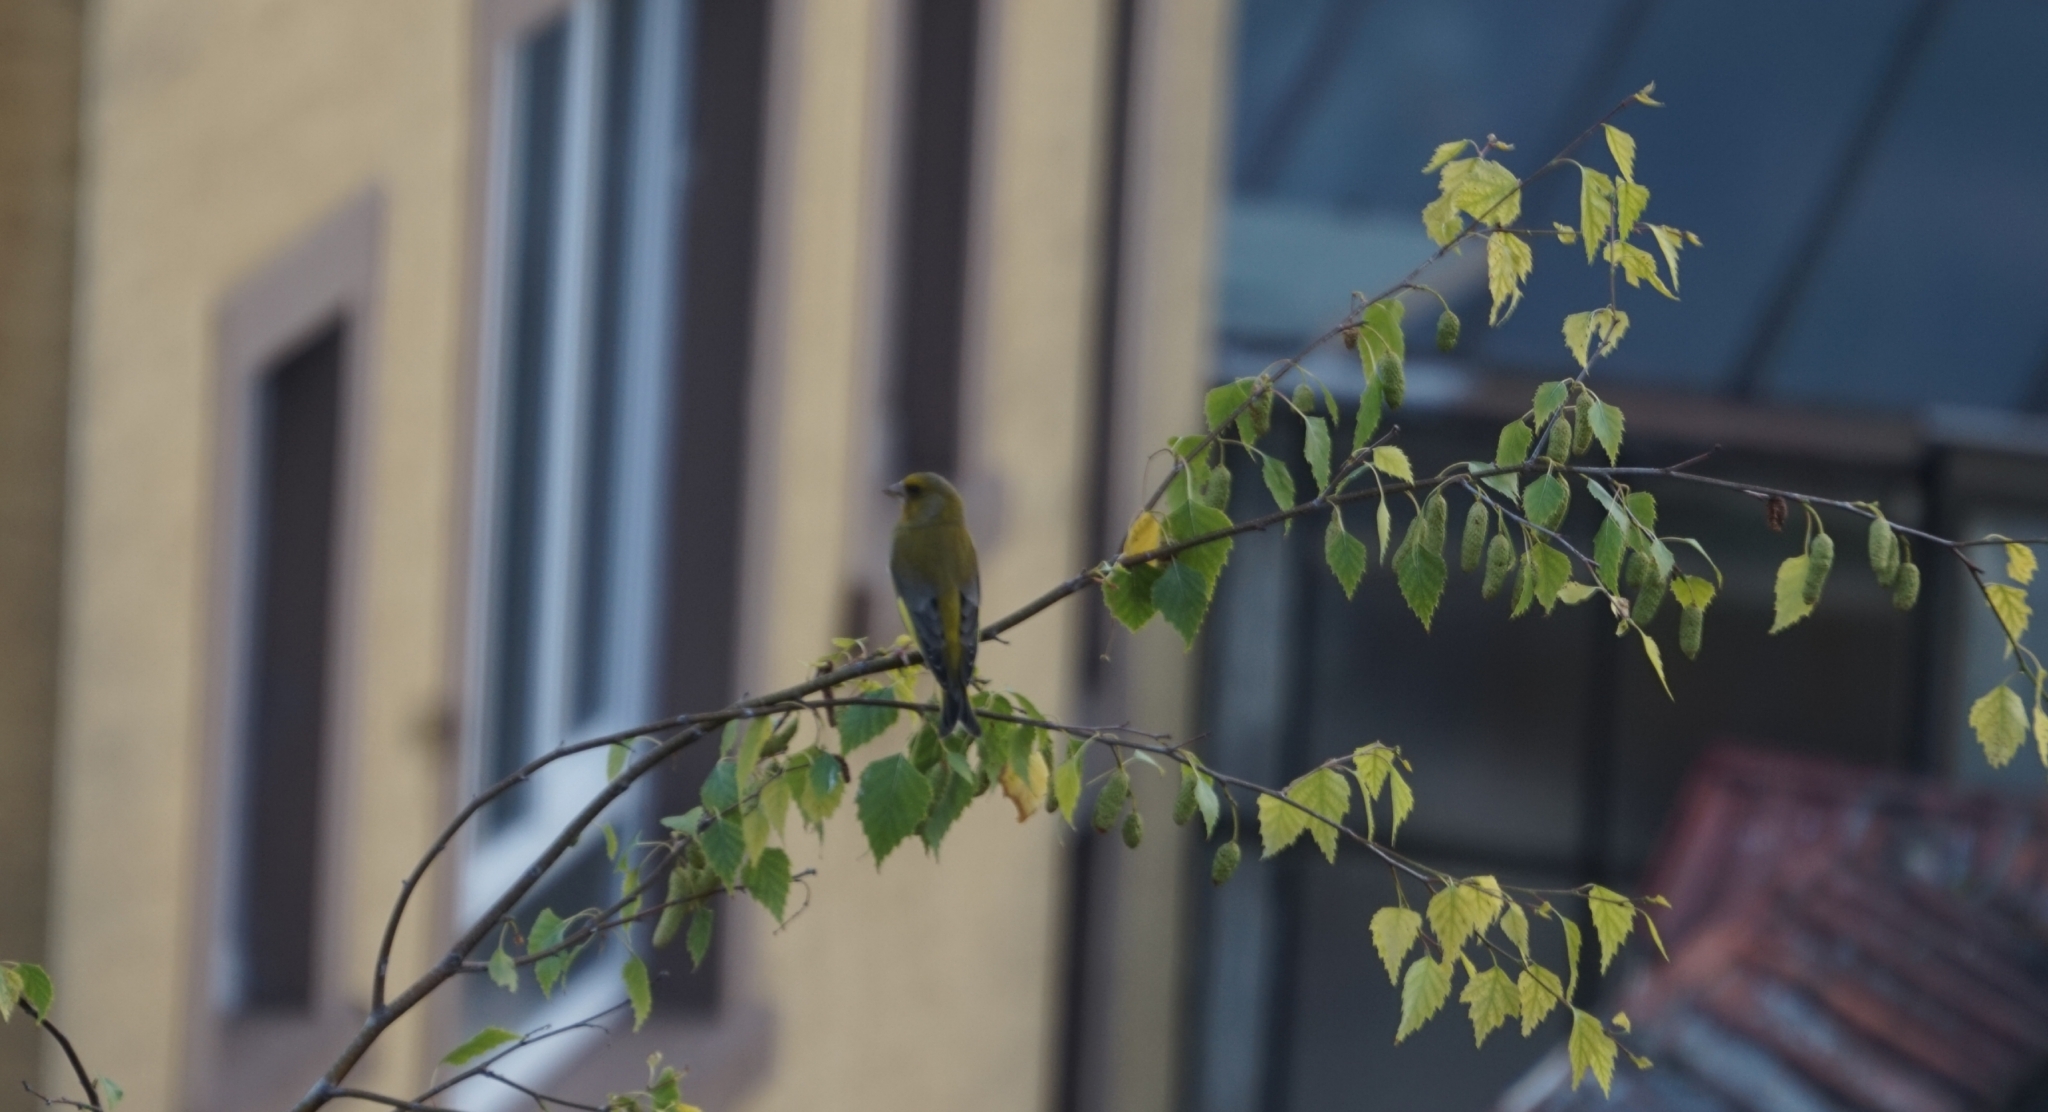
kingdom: Plantae
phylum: Tracheophyta
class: Liliopsida
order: Poales
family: Poaceae
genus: Chloris
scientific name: Chloris chloris
